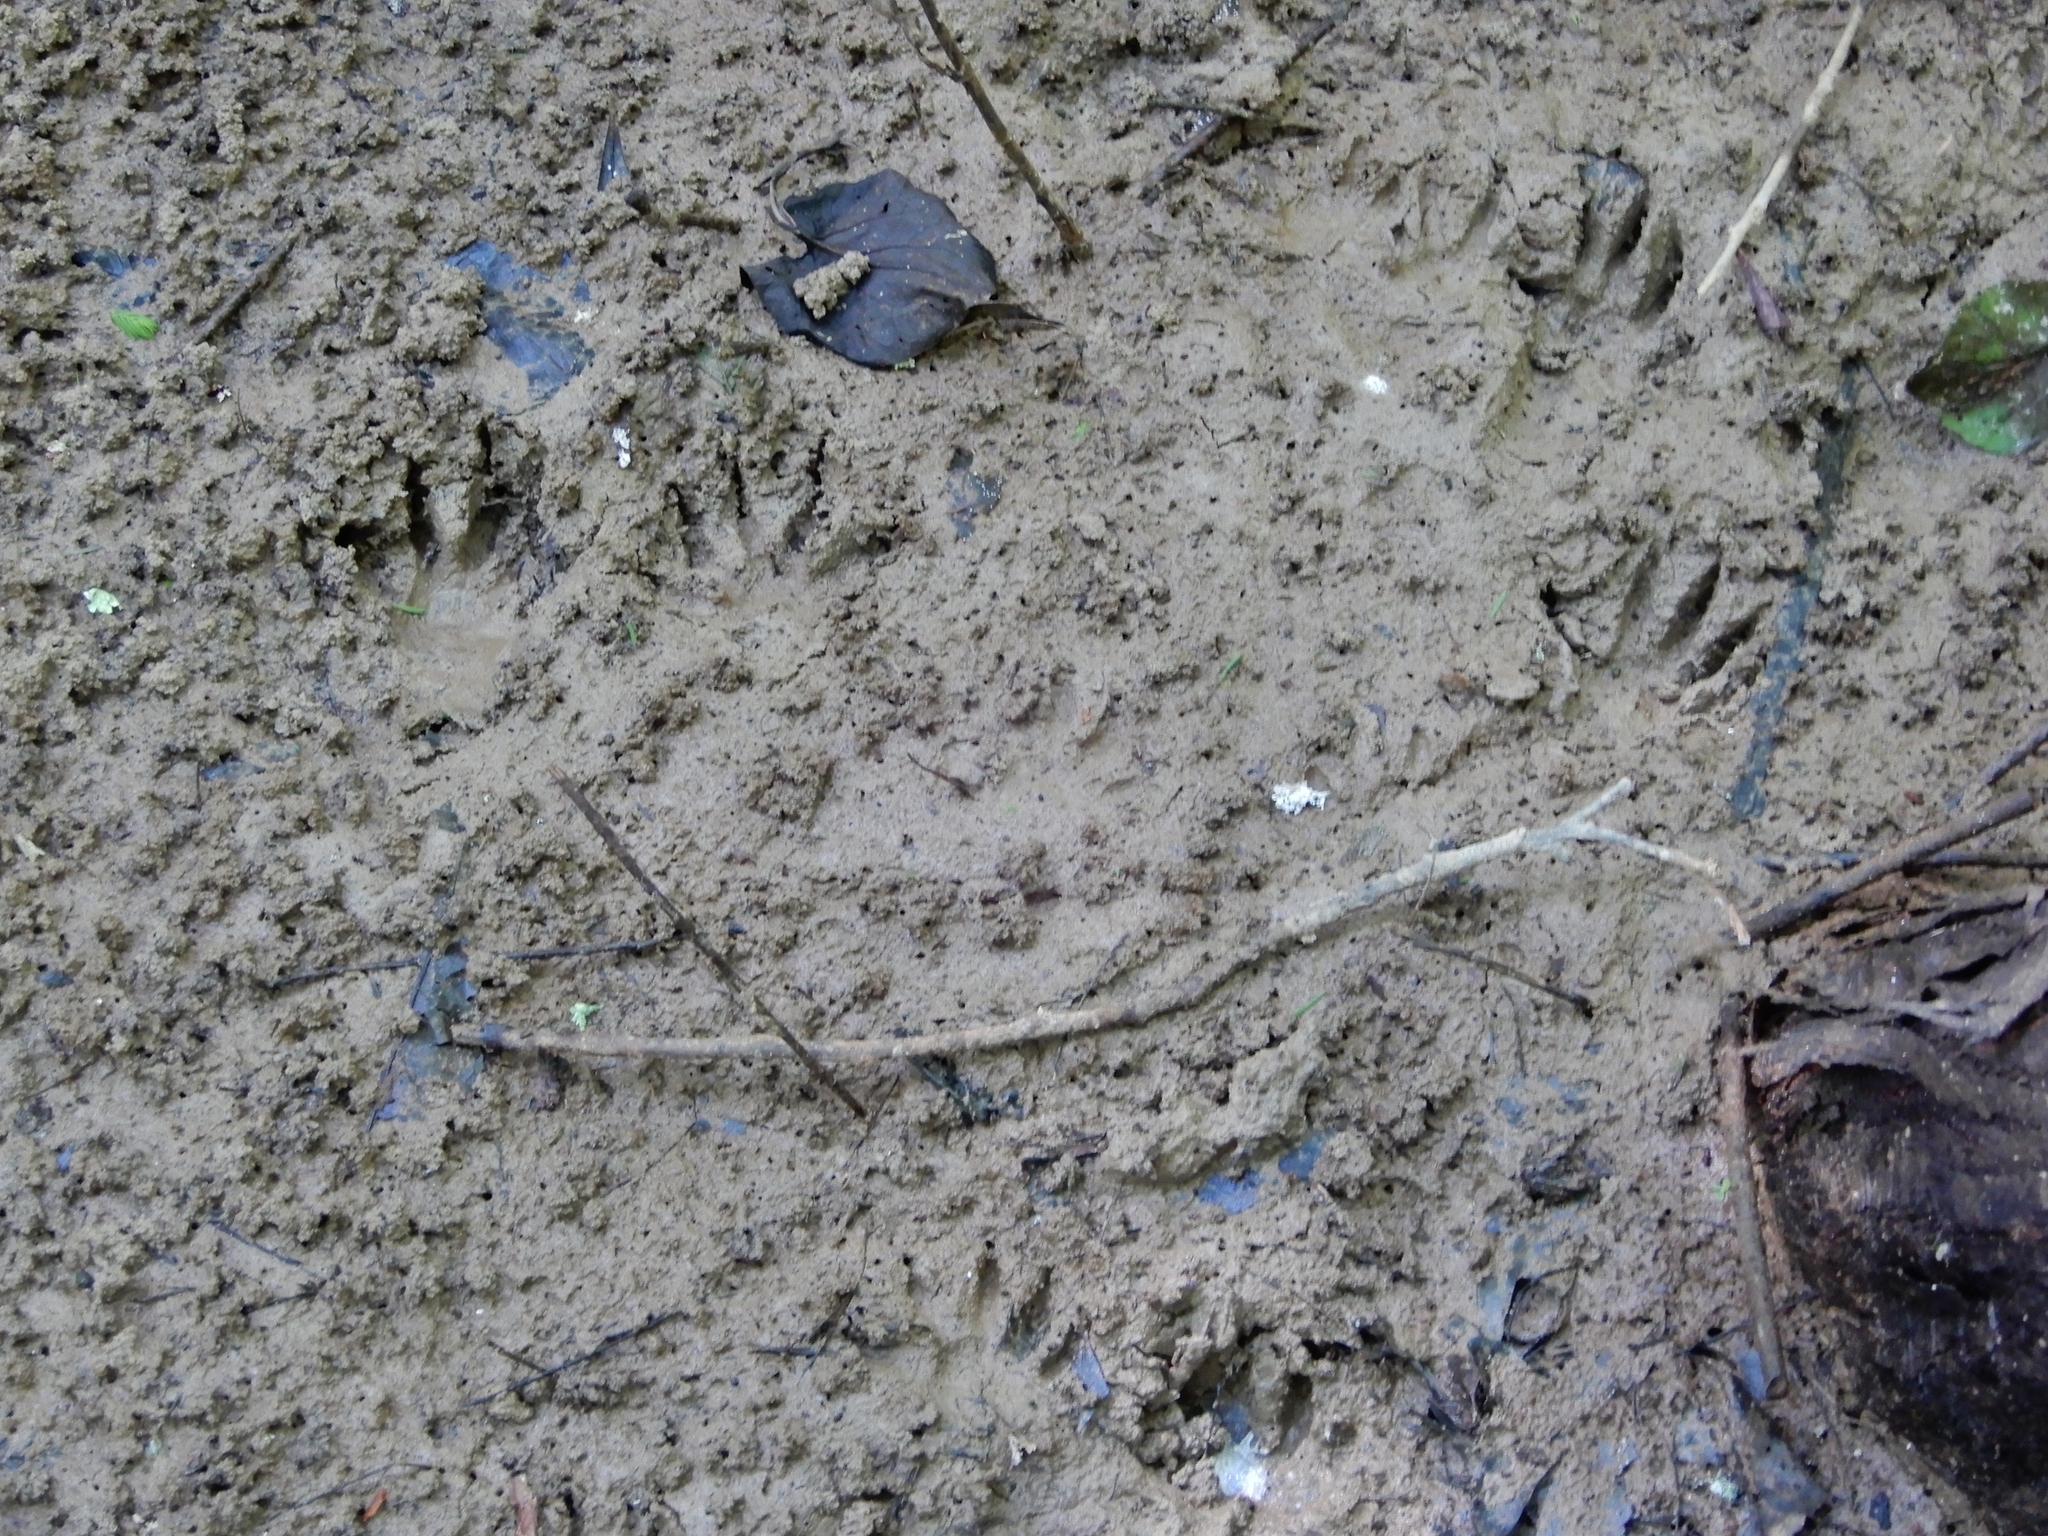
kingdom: Animalia
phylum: Chordata
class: Mammalia
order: Carnivora
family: Procyonidae
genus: Procyon
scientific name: Procyon lotor
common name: Raccoon
